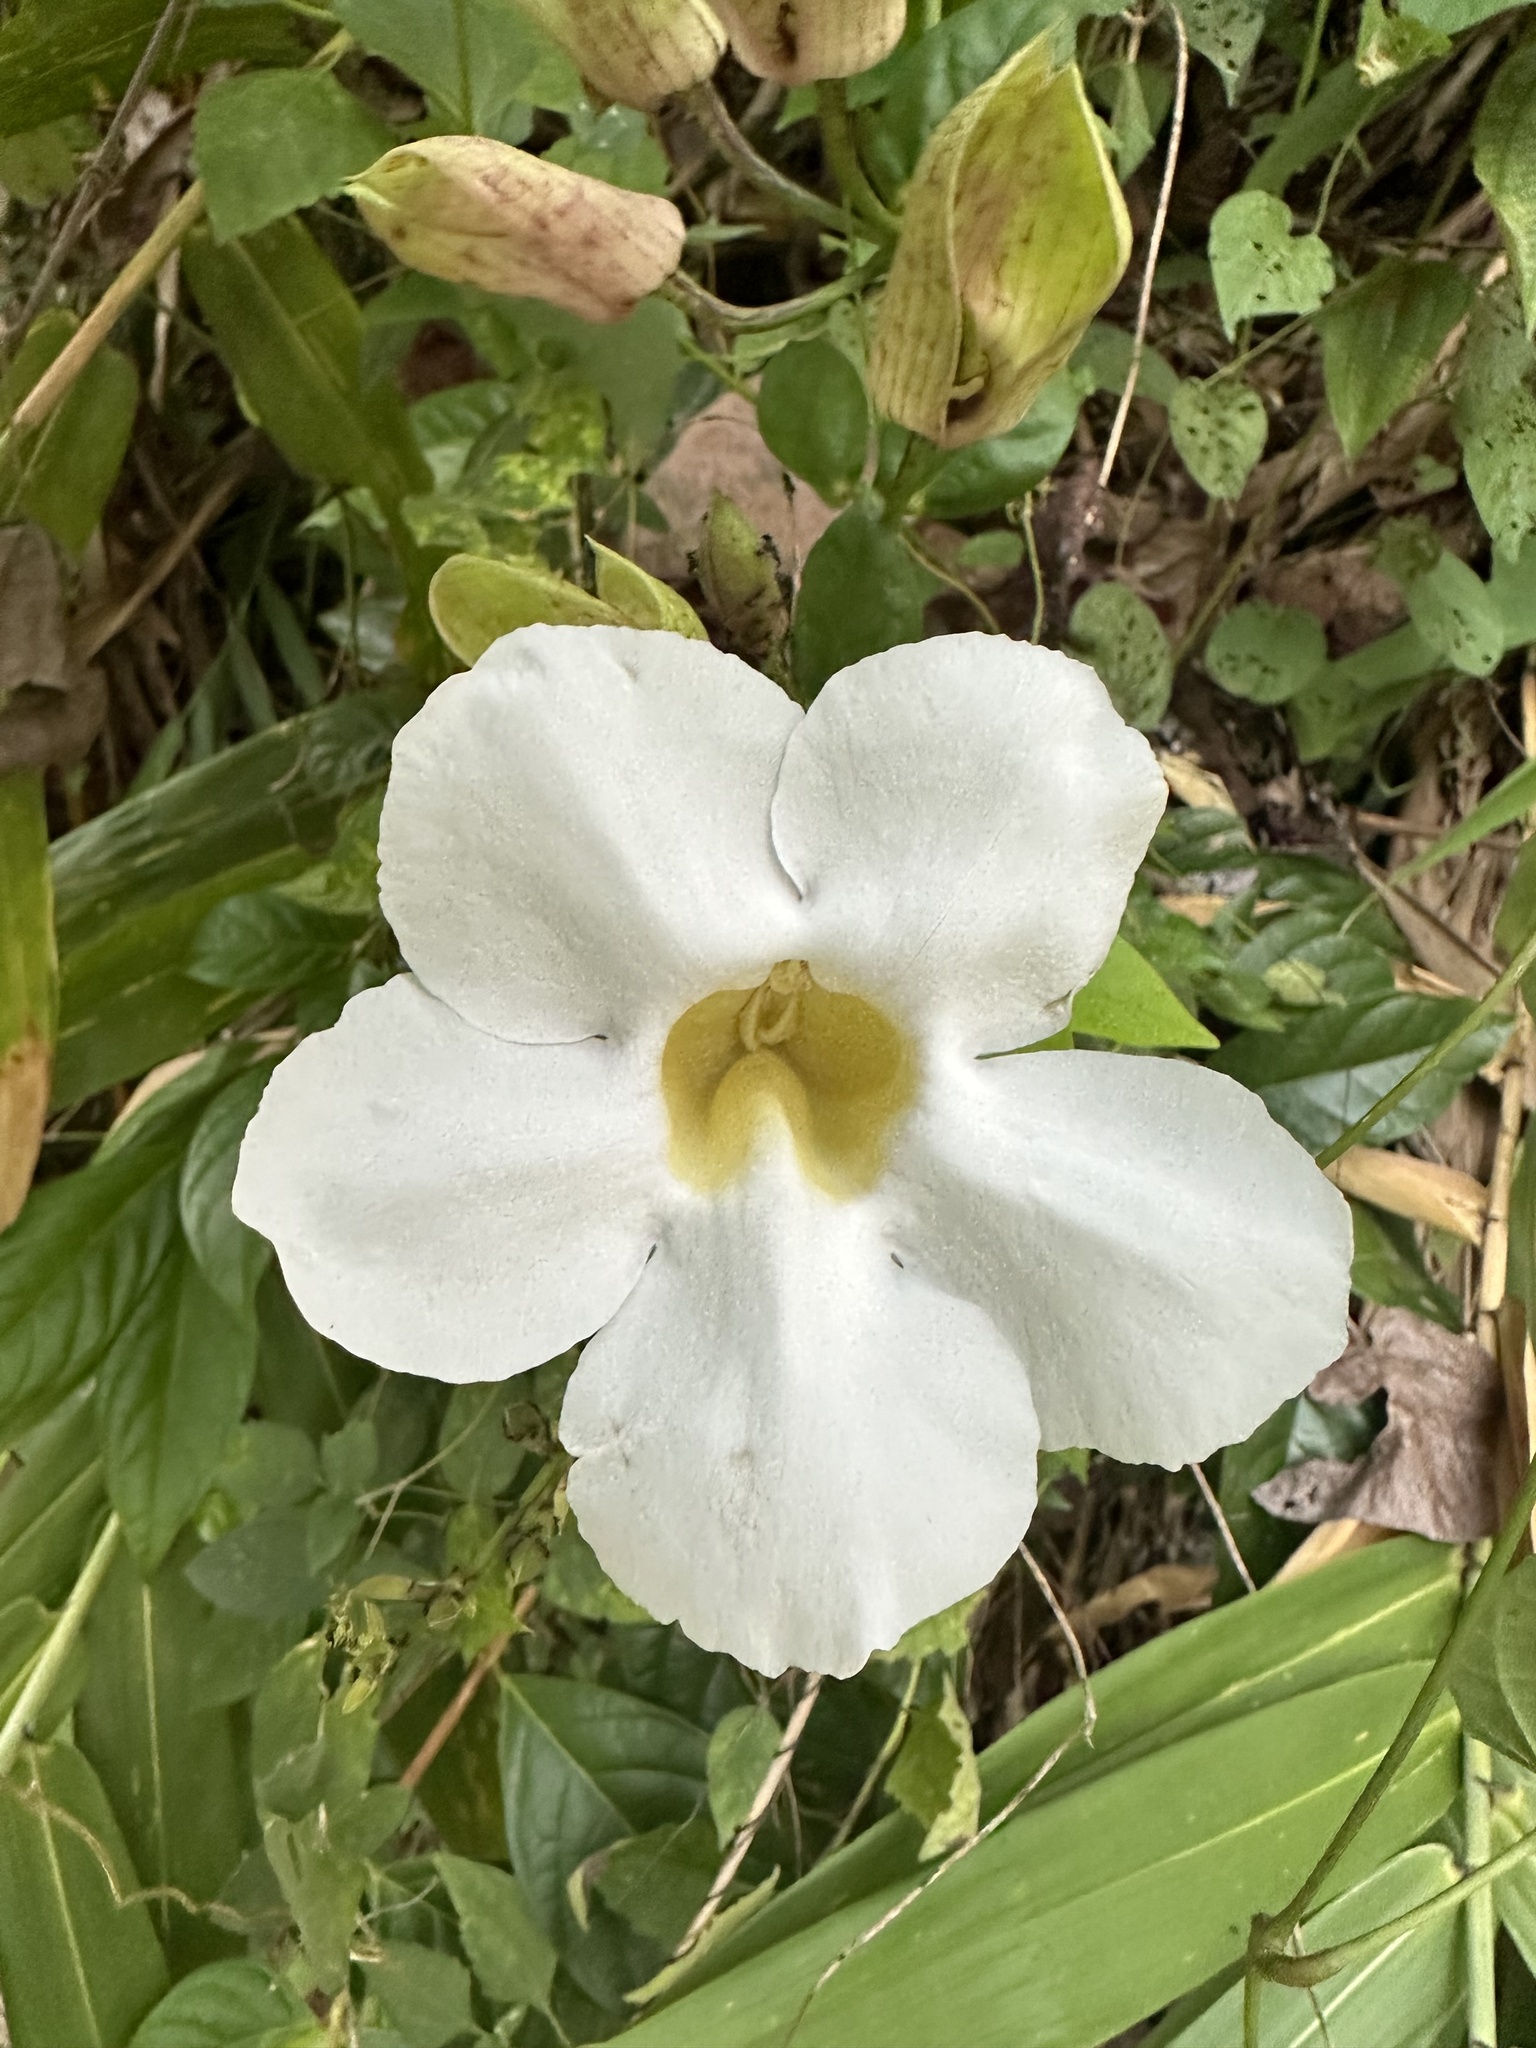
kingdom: Plantae
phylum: Tracheophyta
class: Magnoliopsida
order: Lamiales
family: Acanthaceae
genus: Thunbergia
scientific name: Thunbergia laurifolia
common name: Laurel-leaved thunbergia
